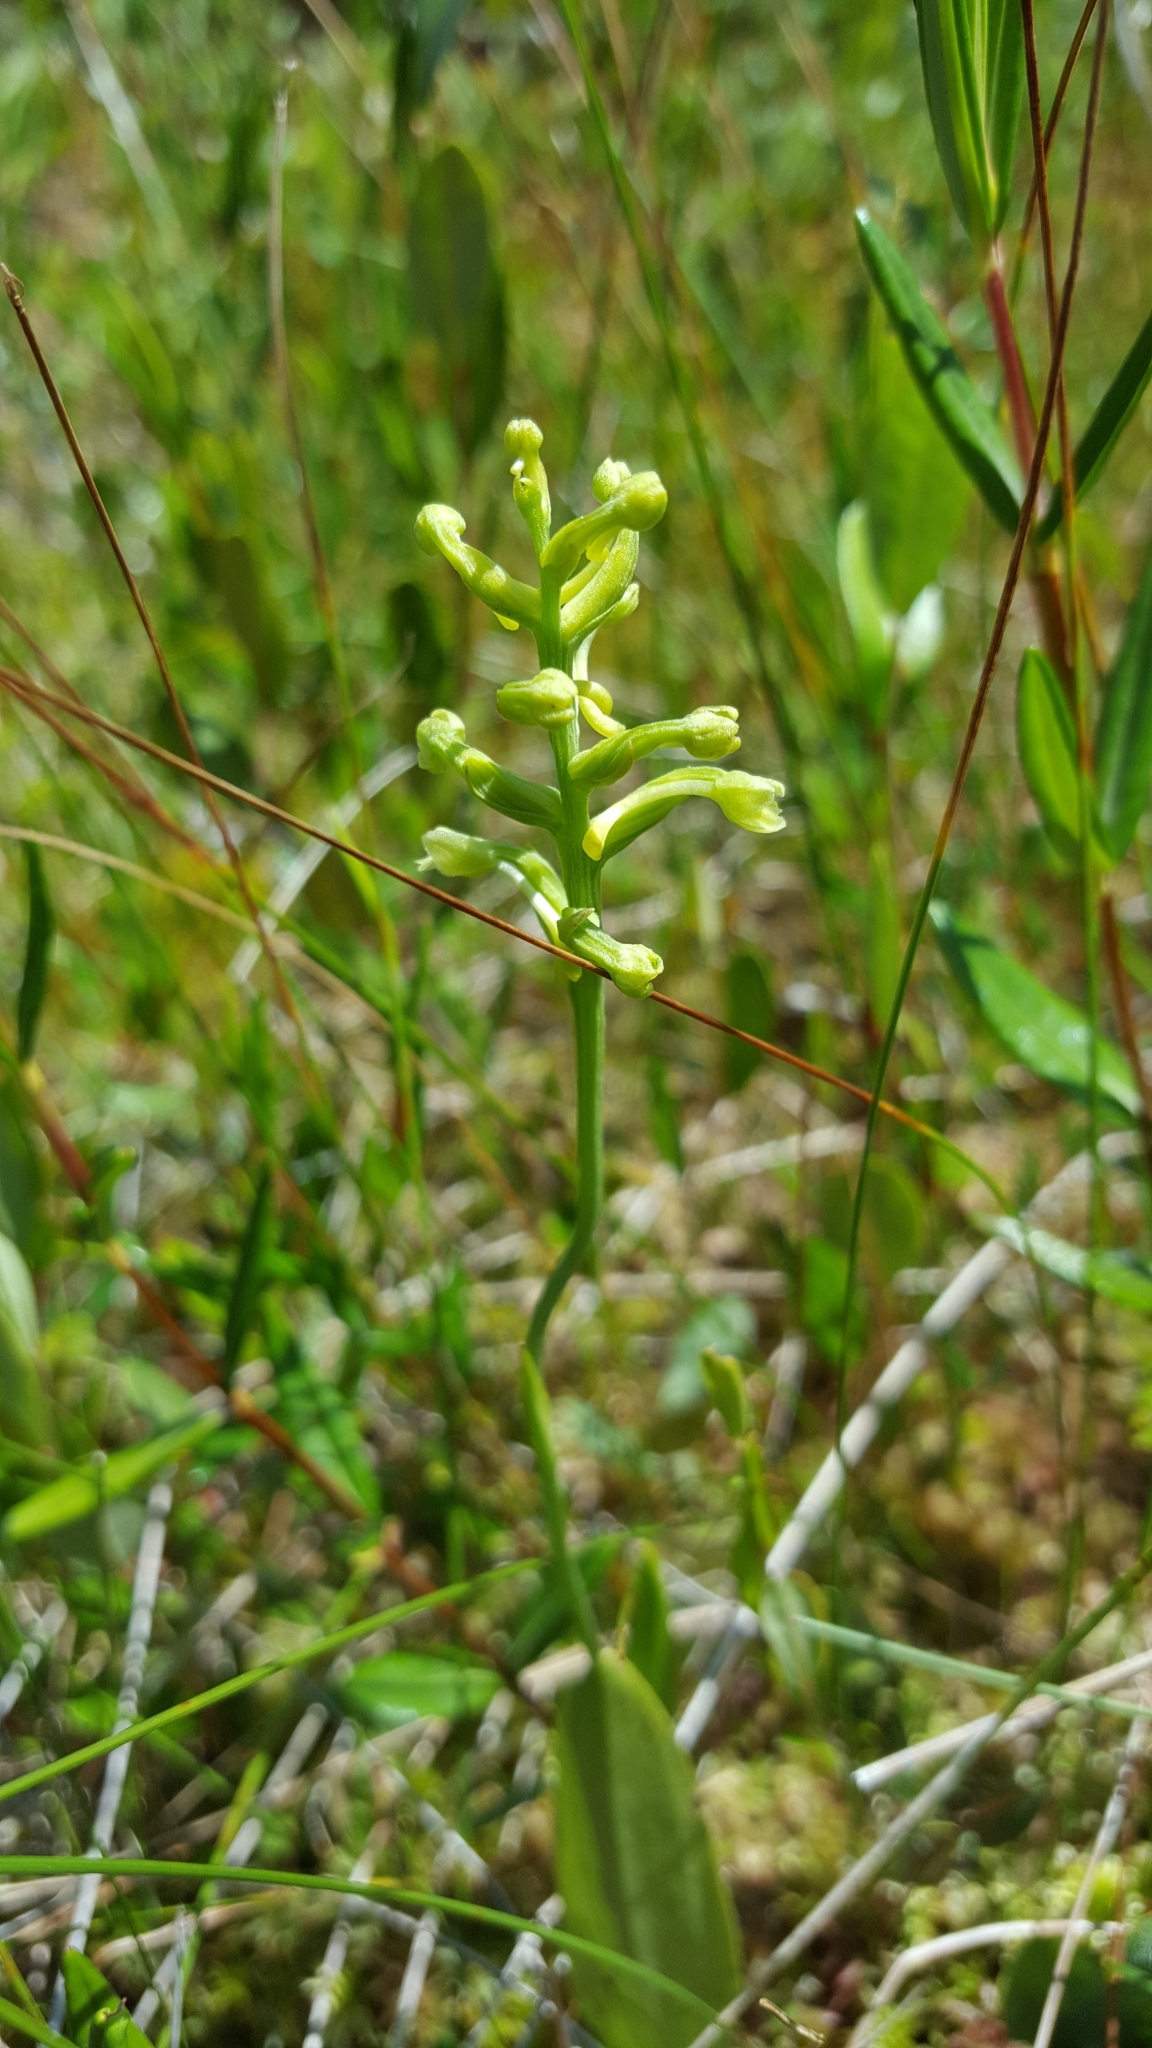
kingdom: Plantae
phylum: Tracheophyta
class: Liliopsida
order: Asparagales
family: Orchidaceae
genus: Platanthera
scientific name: Platanthera clavellata
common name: Club-spur orchid
